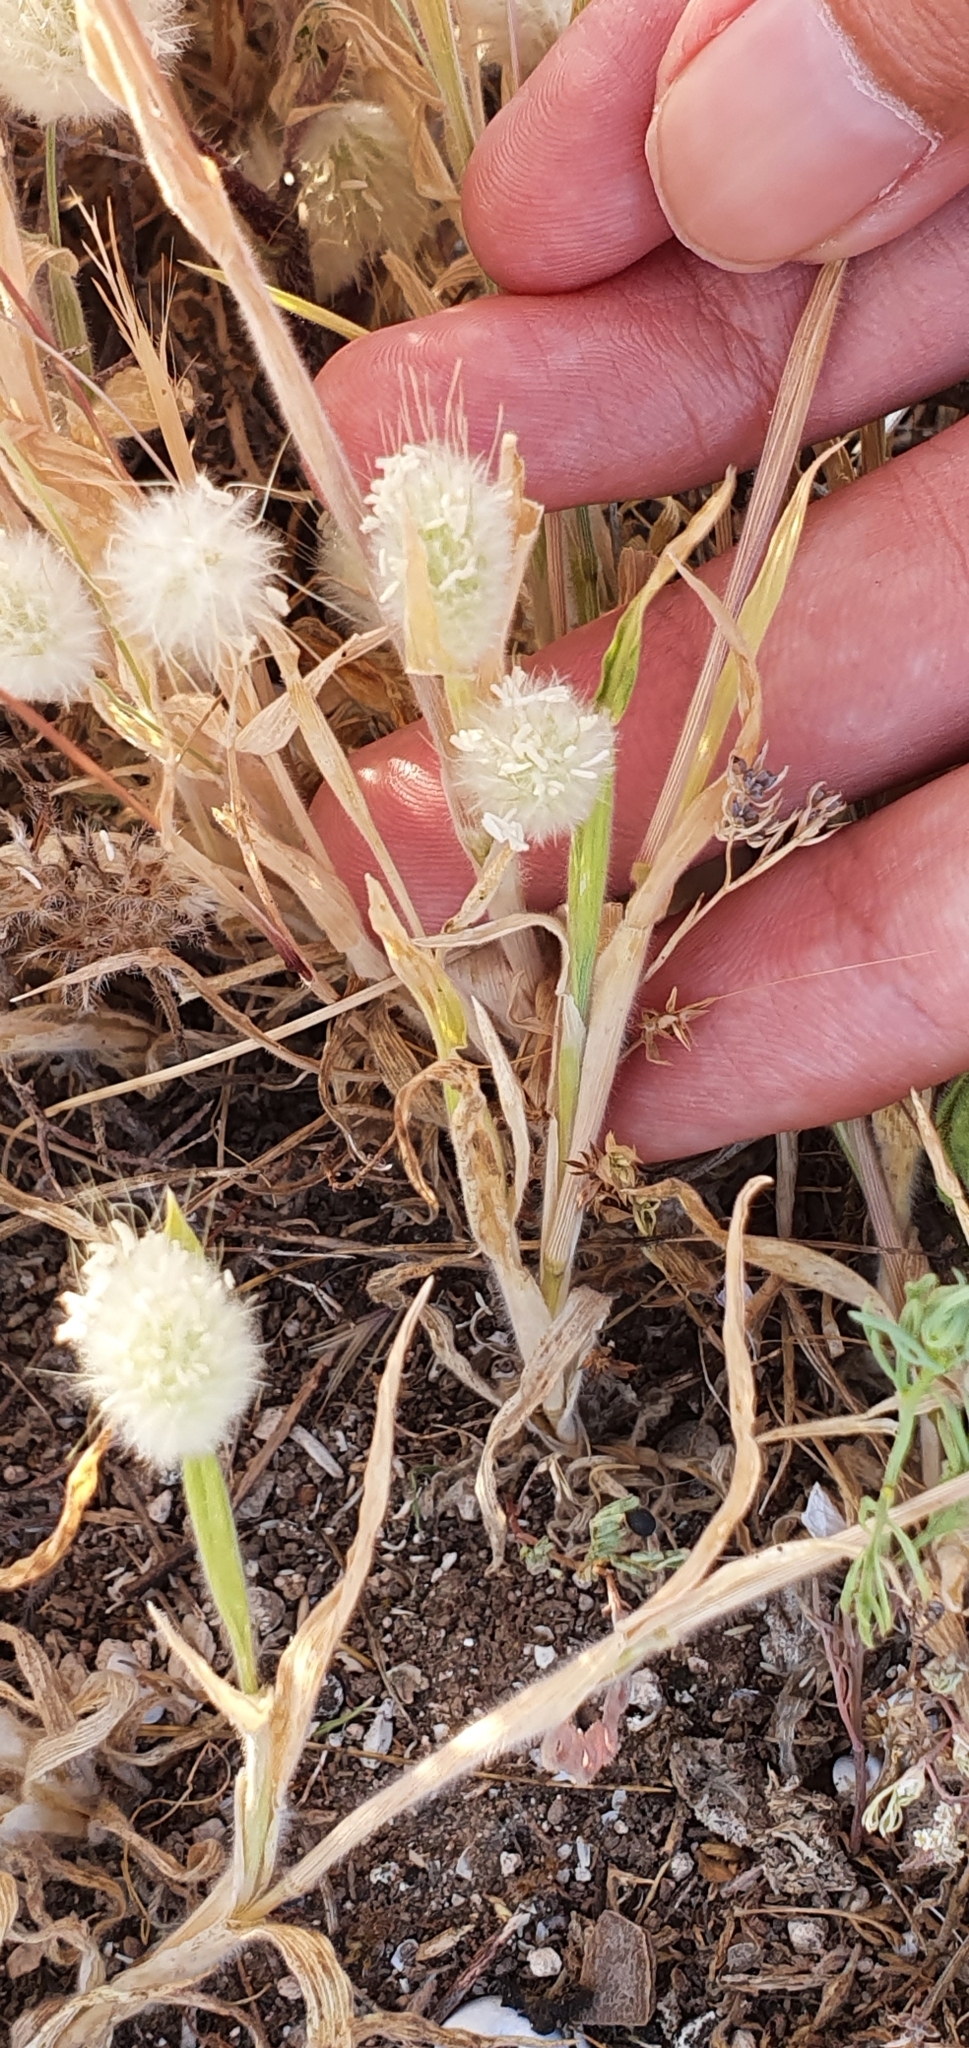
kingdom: Plantae
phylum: Tracheophyta
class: Liliopsida
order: Poales
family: Poaceae
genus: Lagurus
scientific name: Lagurus ovatus
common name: Hare's-tail
